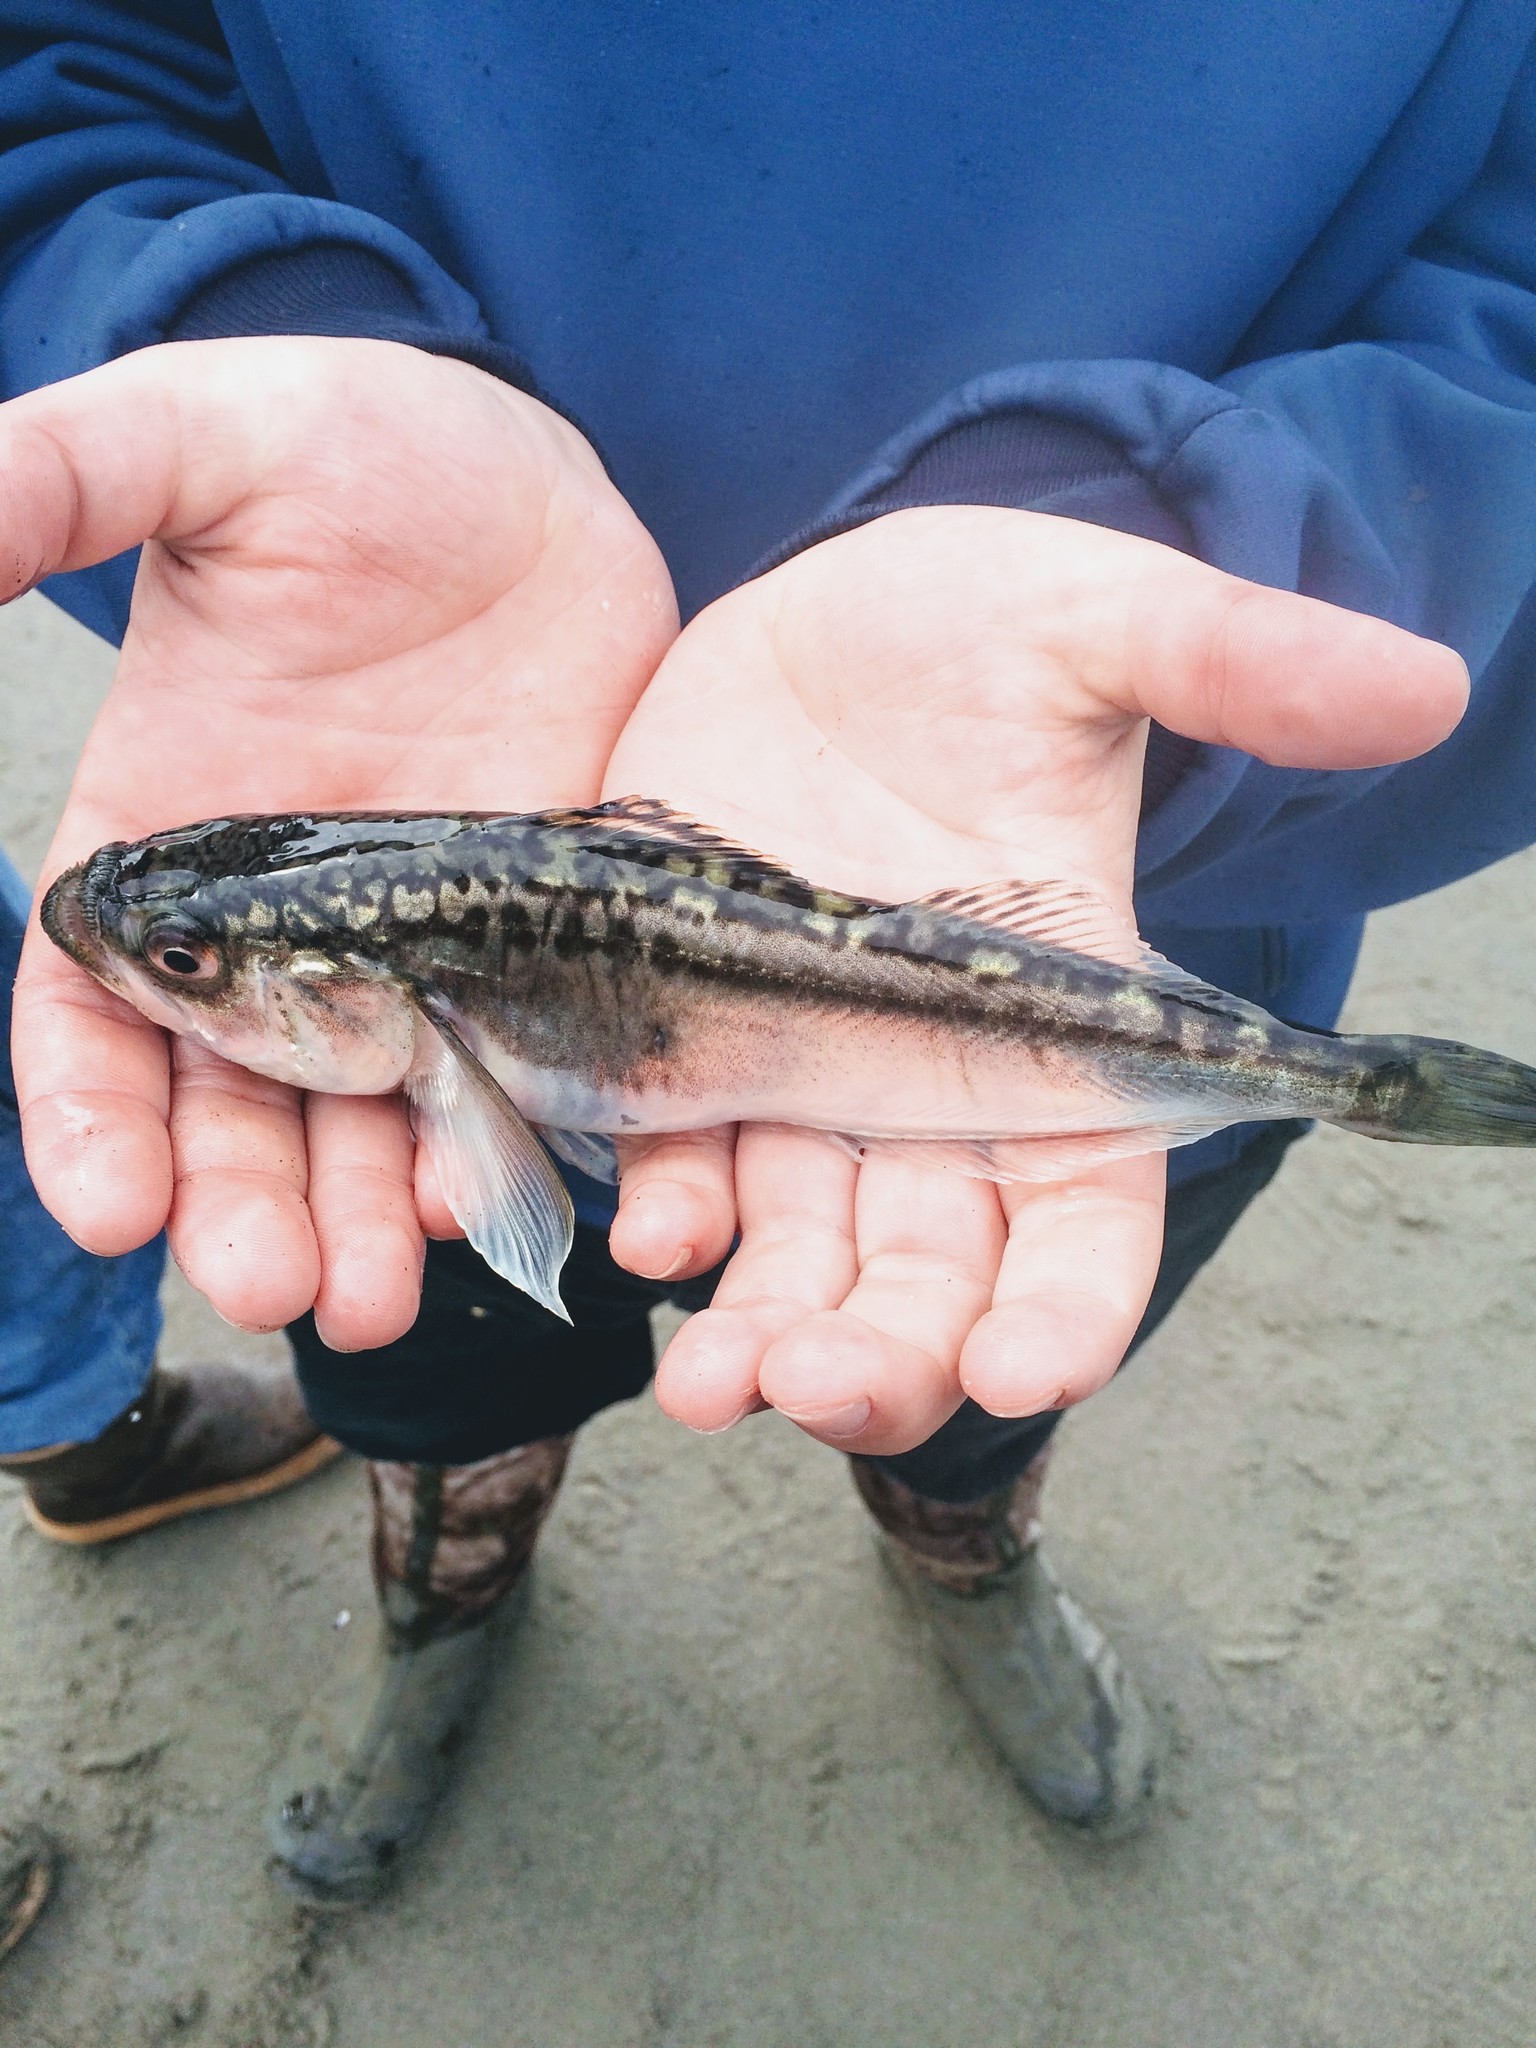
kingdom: Animalia
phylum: Chordata
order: Perciformes
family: Trichodontidae
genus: Trichodon
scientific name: Trichodon trichodon
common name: Pacific sandfish
